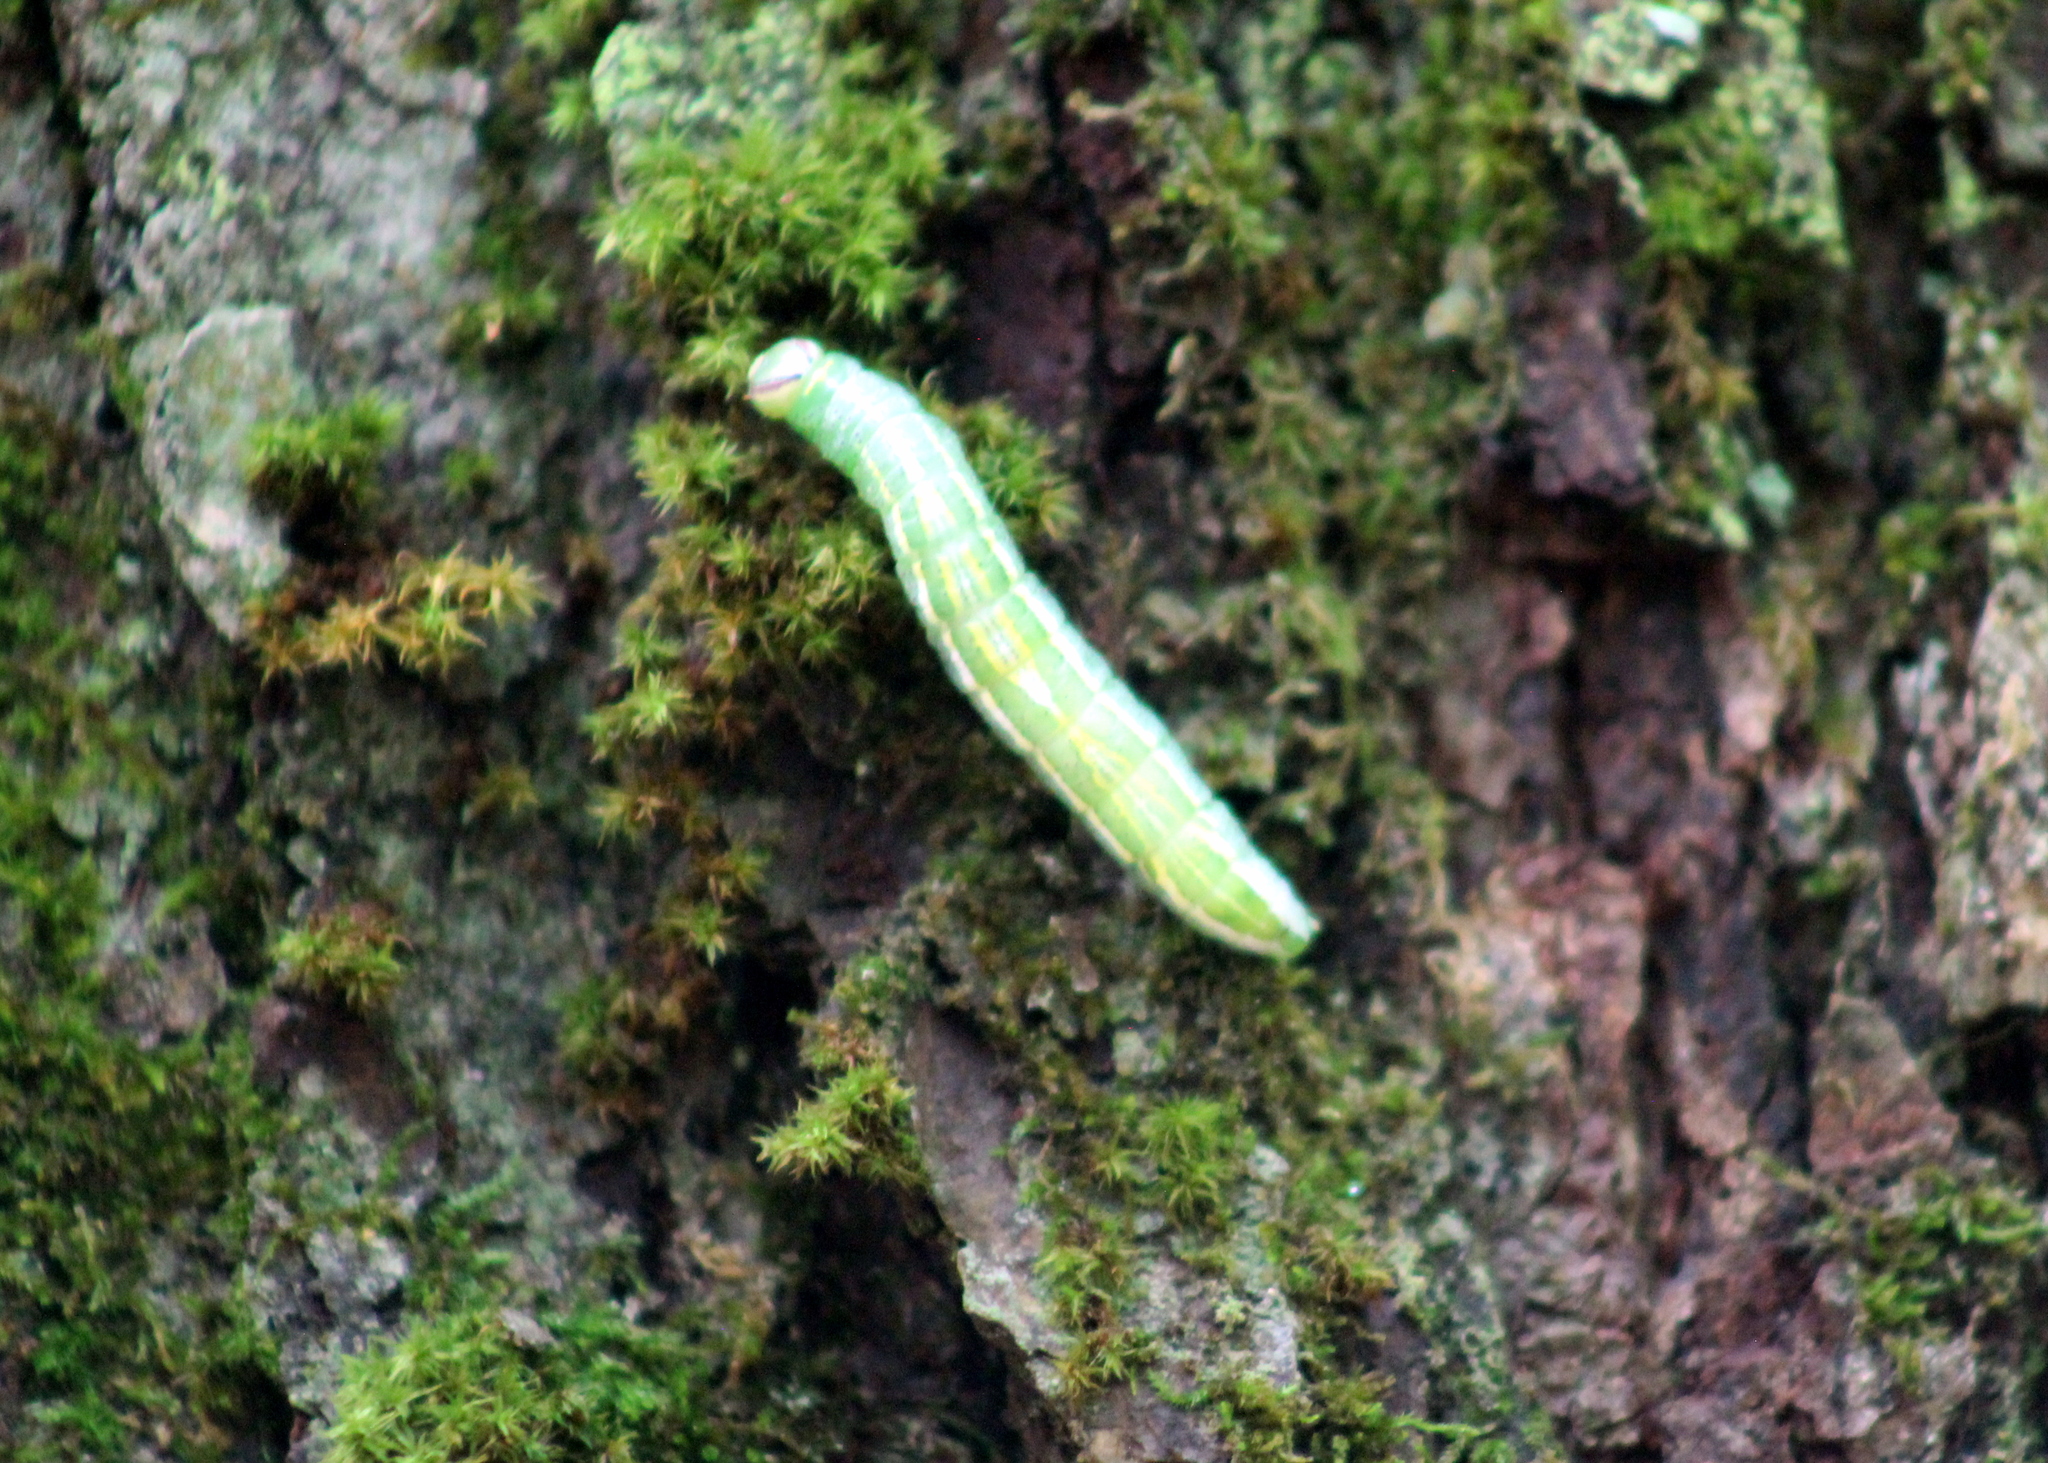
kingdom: Animalia
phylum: Arthropoda
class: Insecta
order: Lepidoptera
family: Notodontidae
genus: Disphragis
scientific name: Disphragis Cecrita guttivitta
